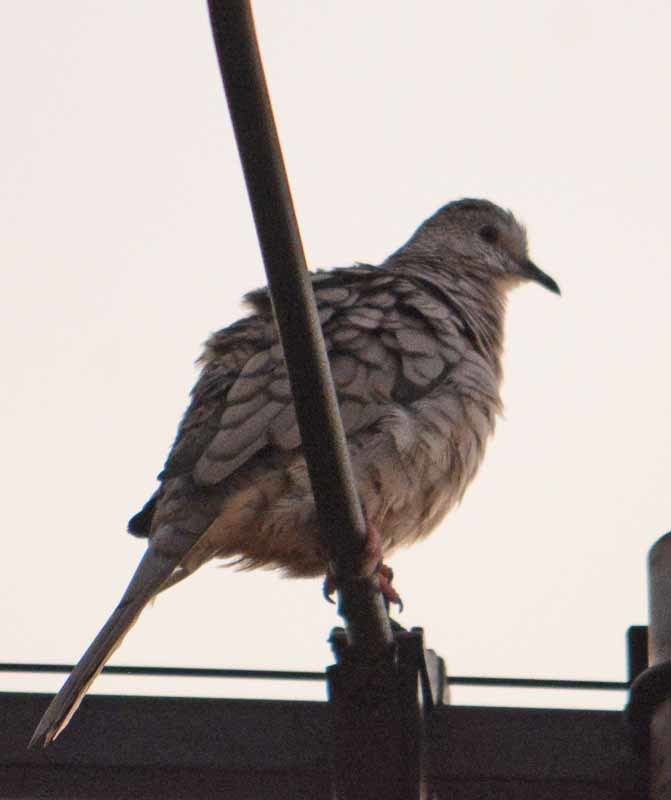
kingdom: Animalia
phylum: Chordata
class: Aves
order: Columbiformes
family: Columbidae
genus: Columbina
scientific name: Columbina inca
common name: Inca dove
